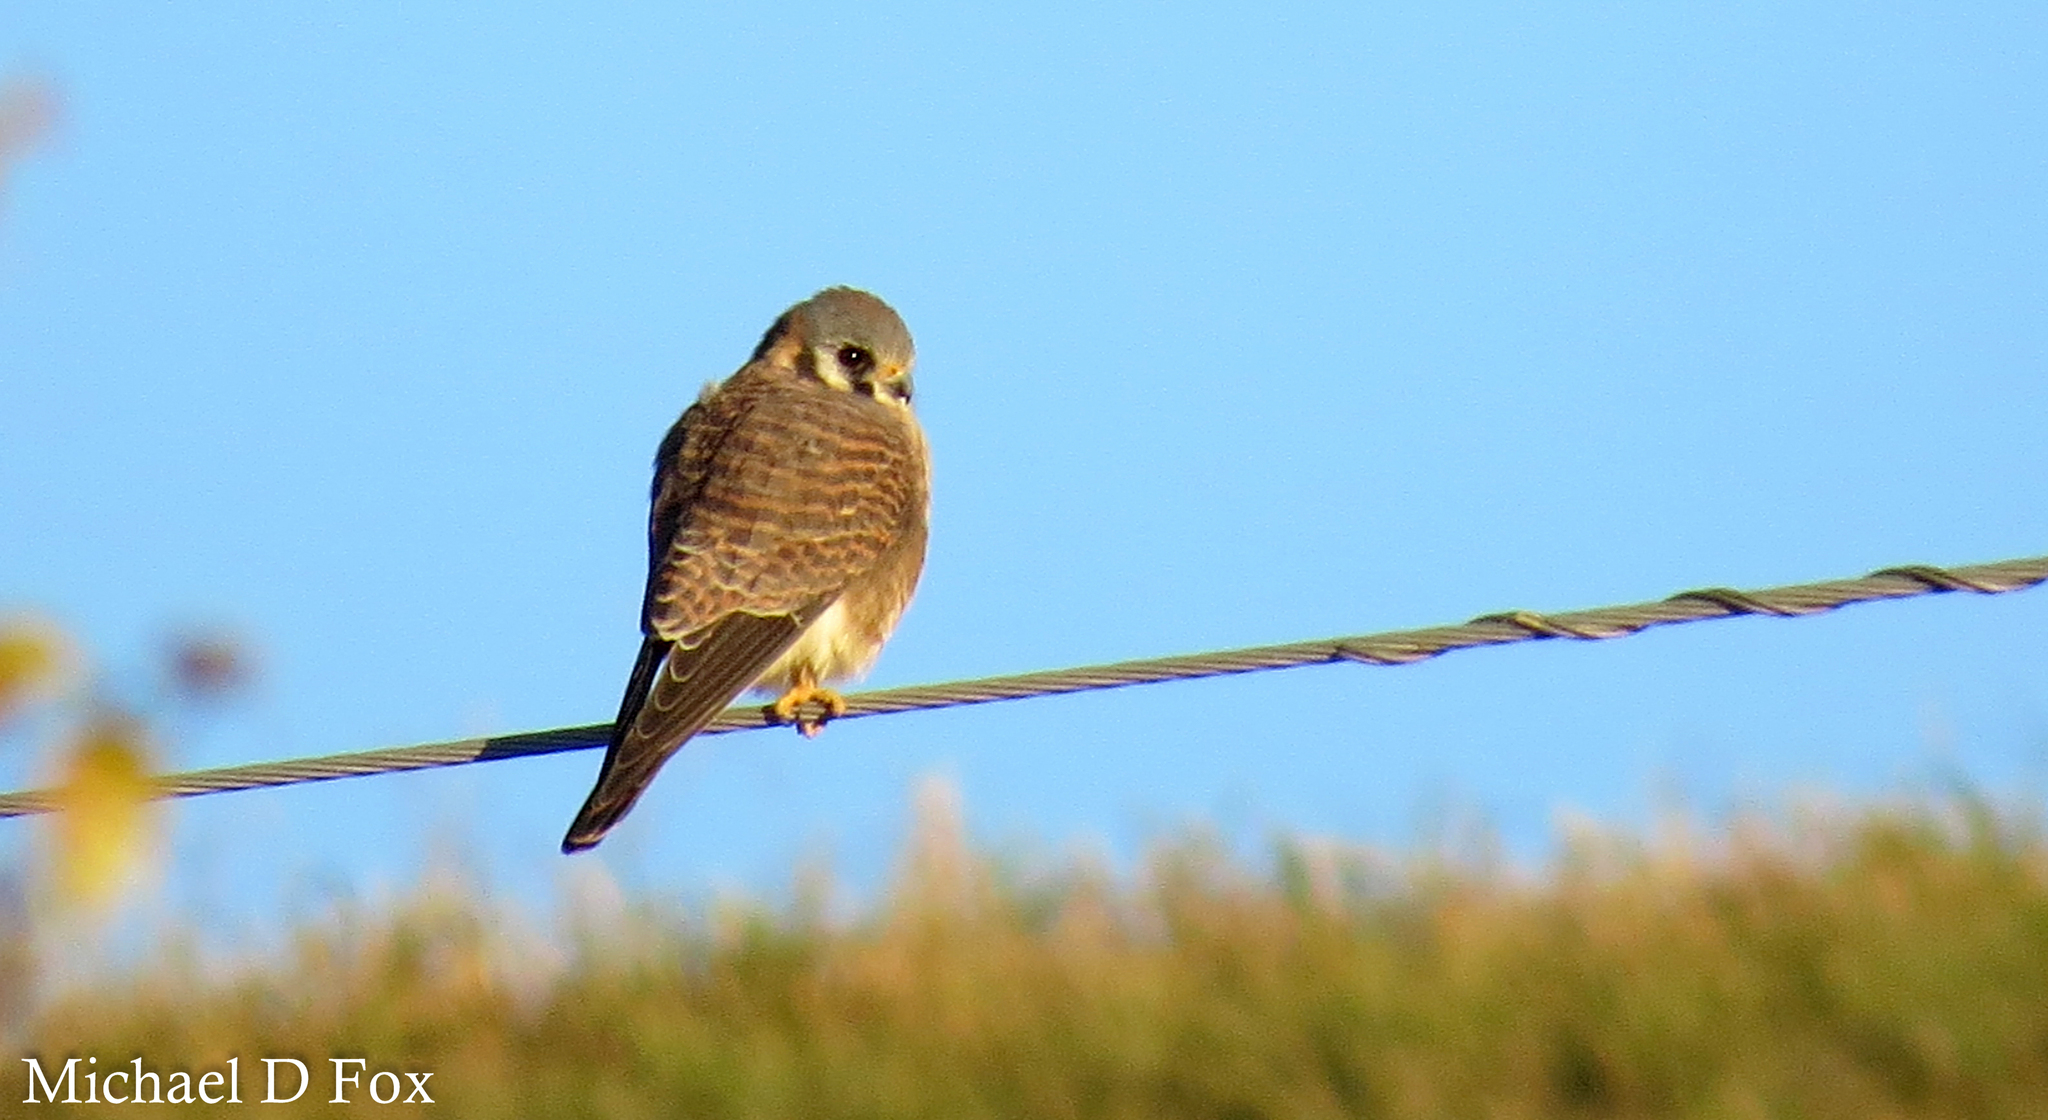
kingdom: Animalia
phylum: Chordata
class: Aves
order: Falconiformes
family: Falconidae
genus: Falco
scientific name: Falco sparverius
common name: American kestrel
